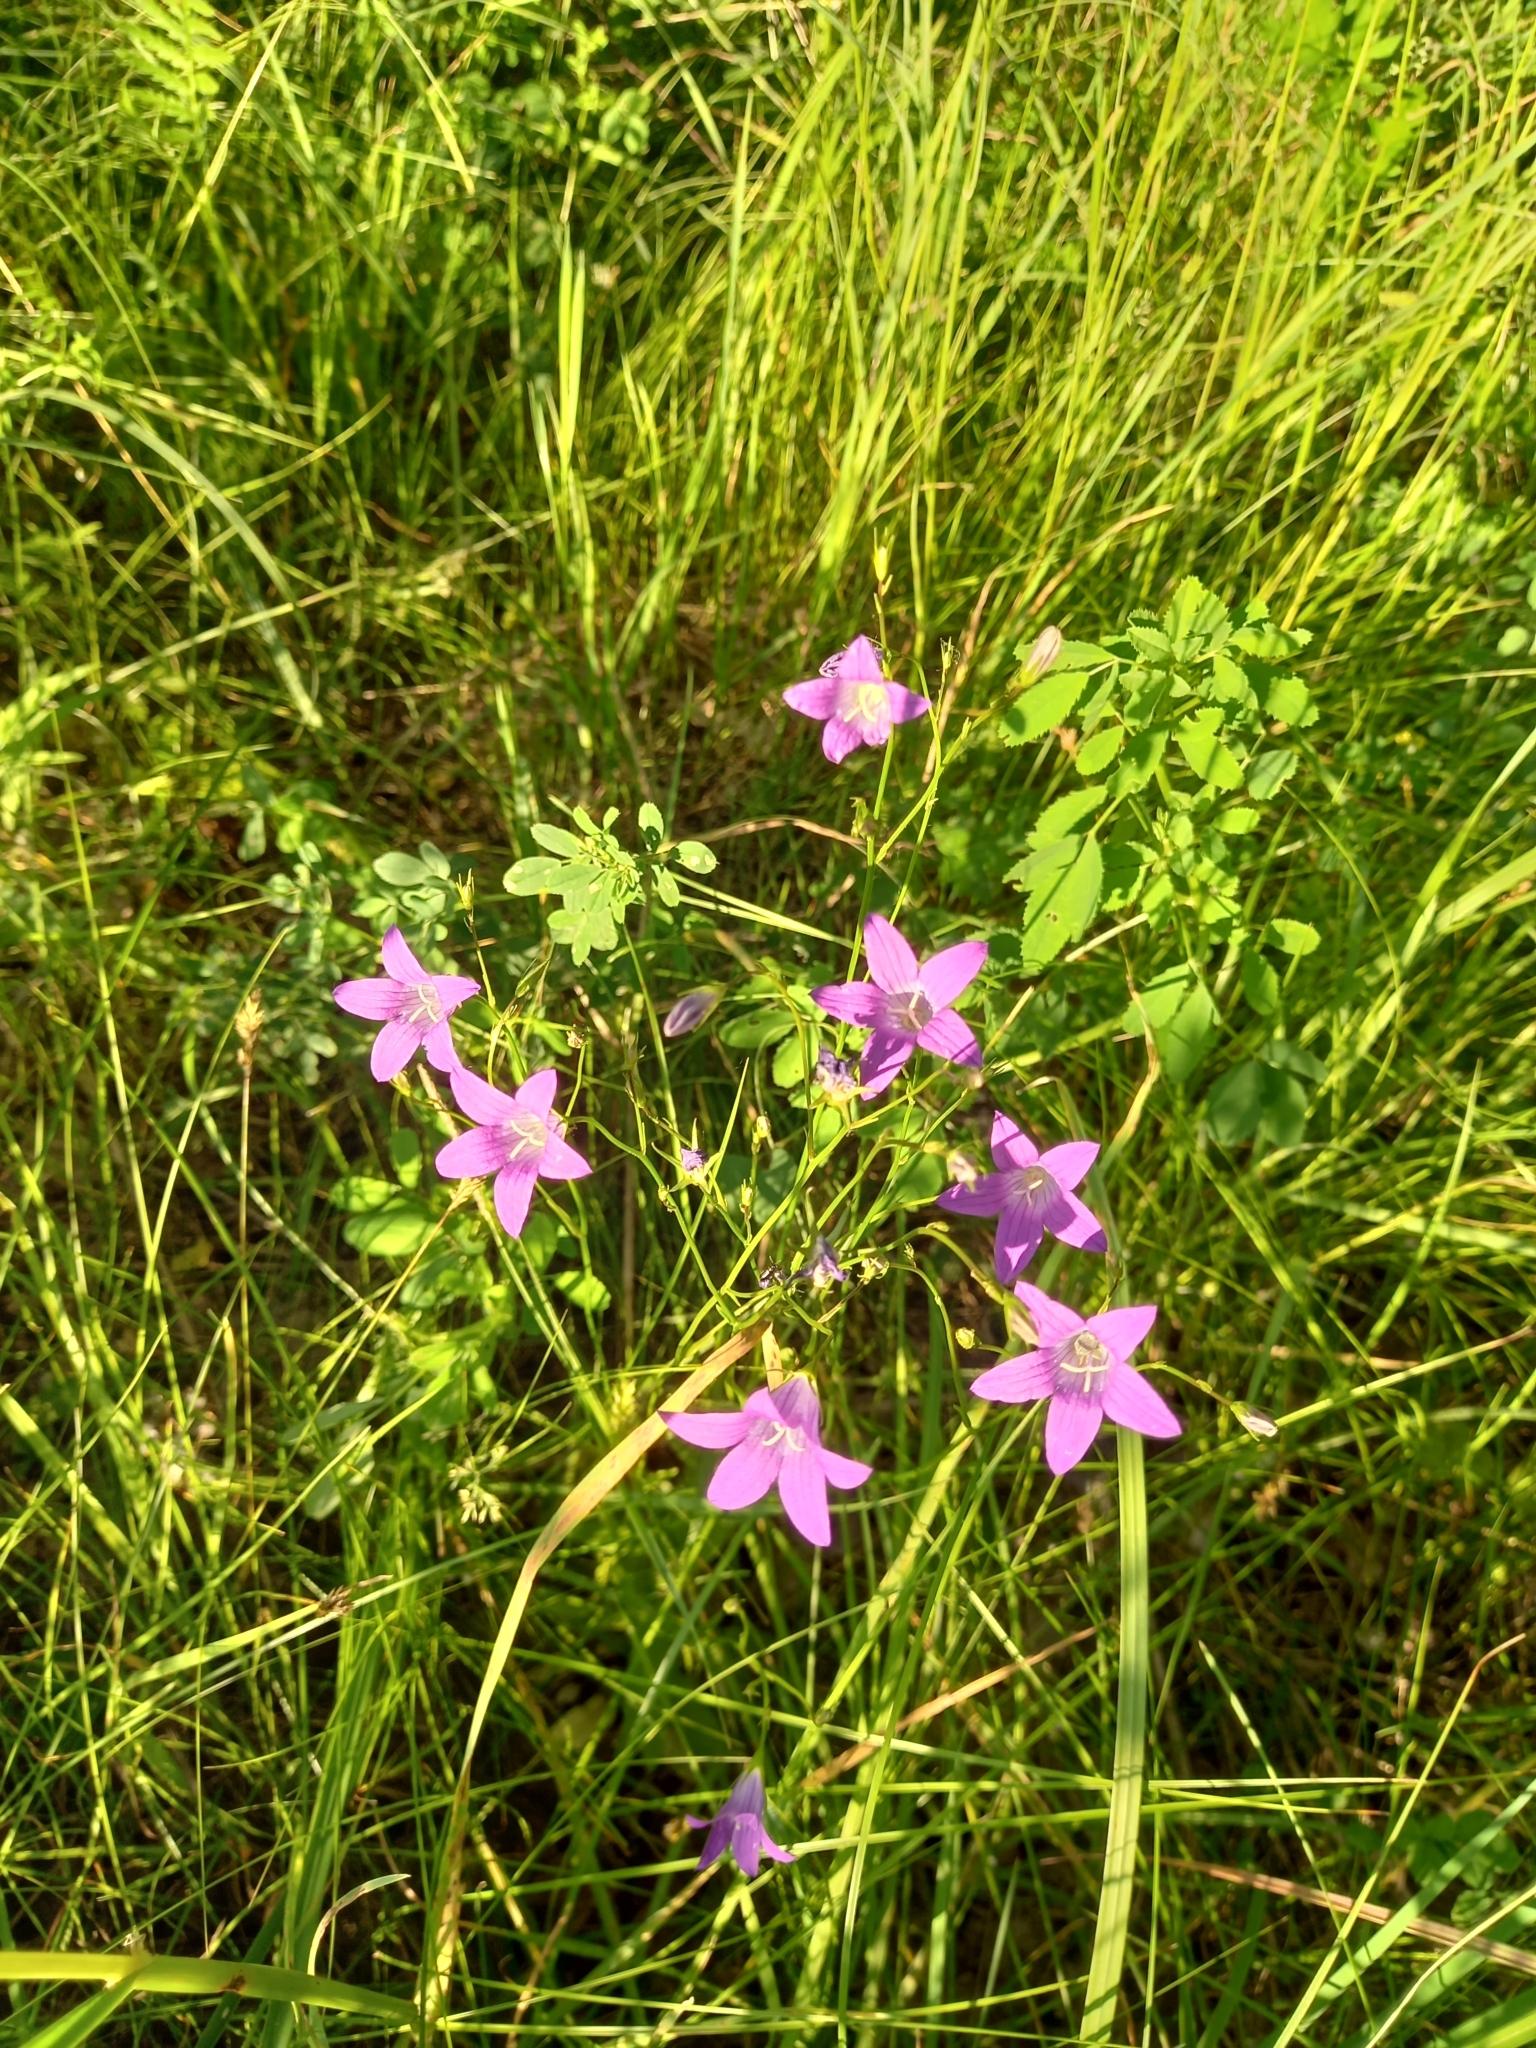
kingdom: Plantae
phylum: Tracheophyta
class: Magnoliopsida
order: Asterales
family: Campanulaceae
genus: Campanula
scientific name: Campanula patula
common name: Spreading bellflower
